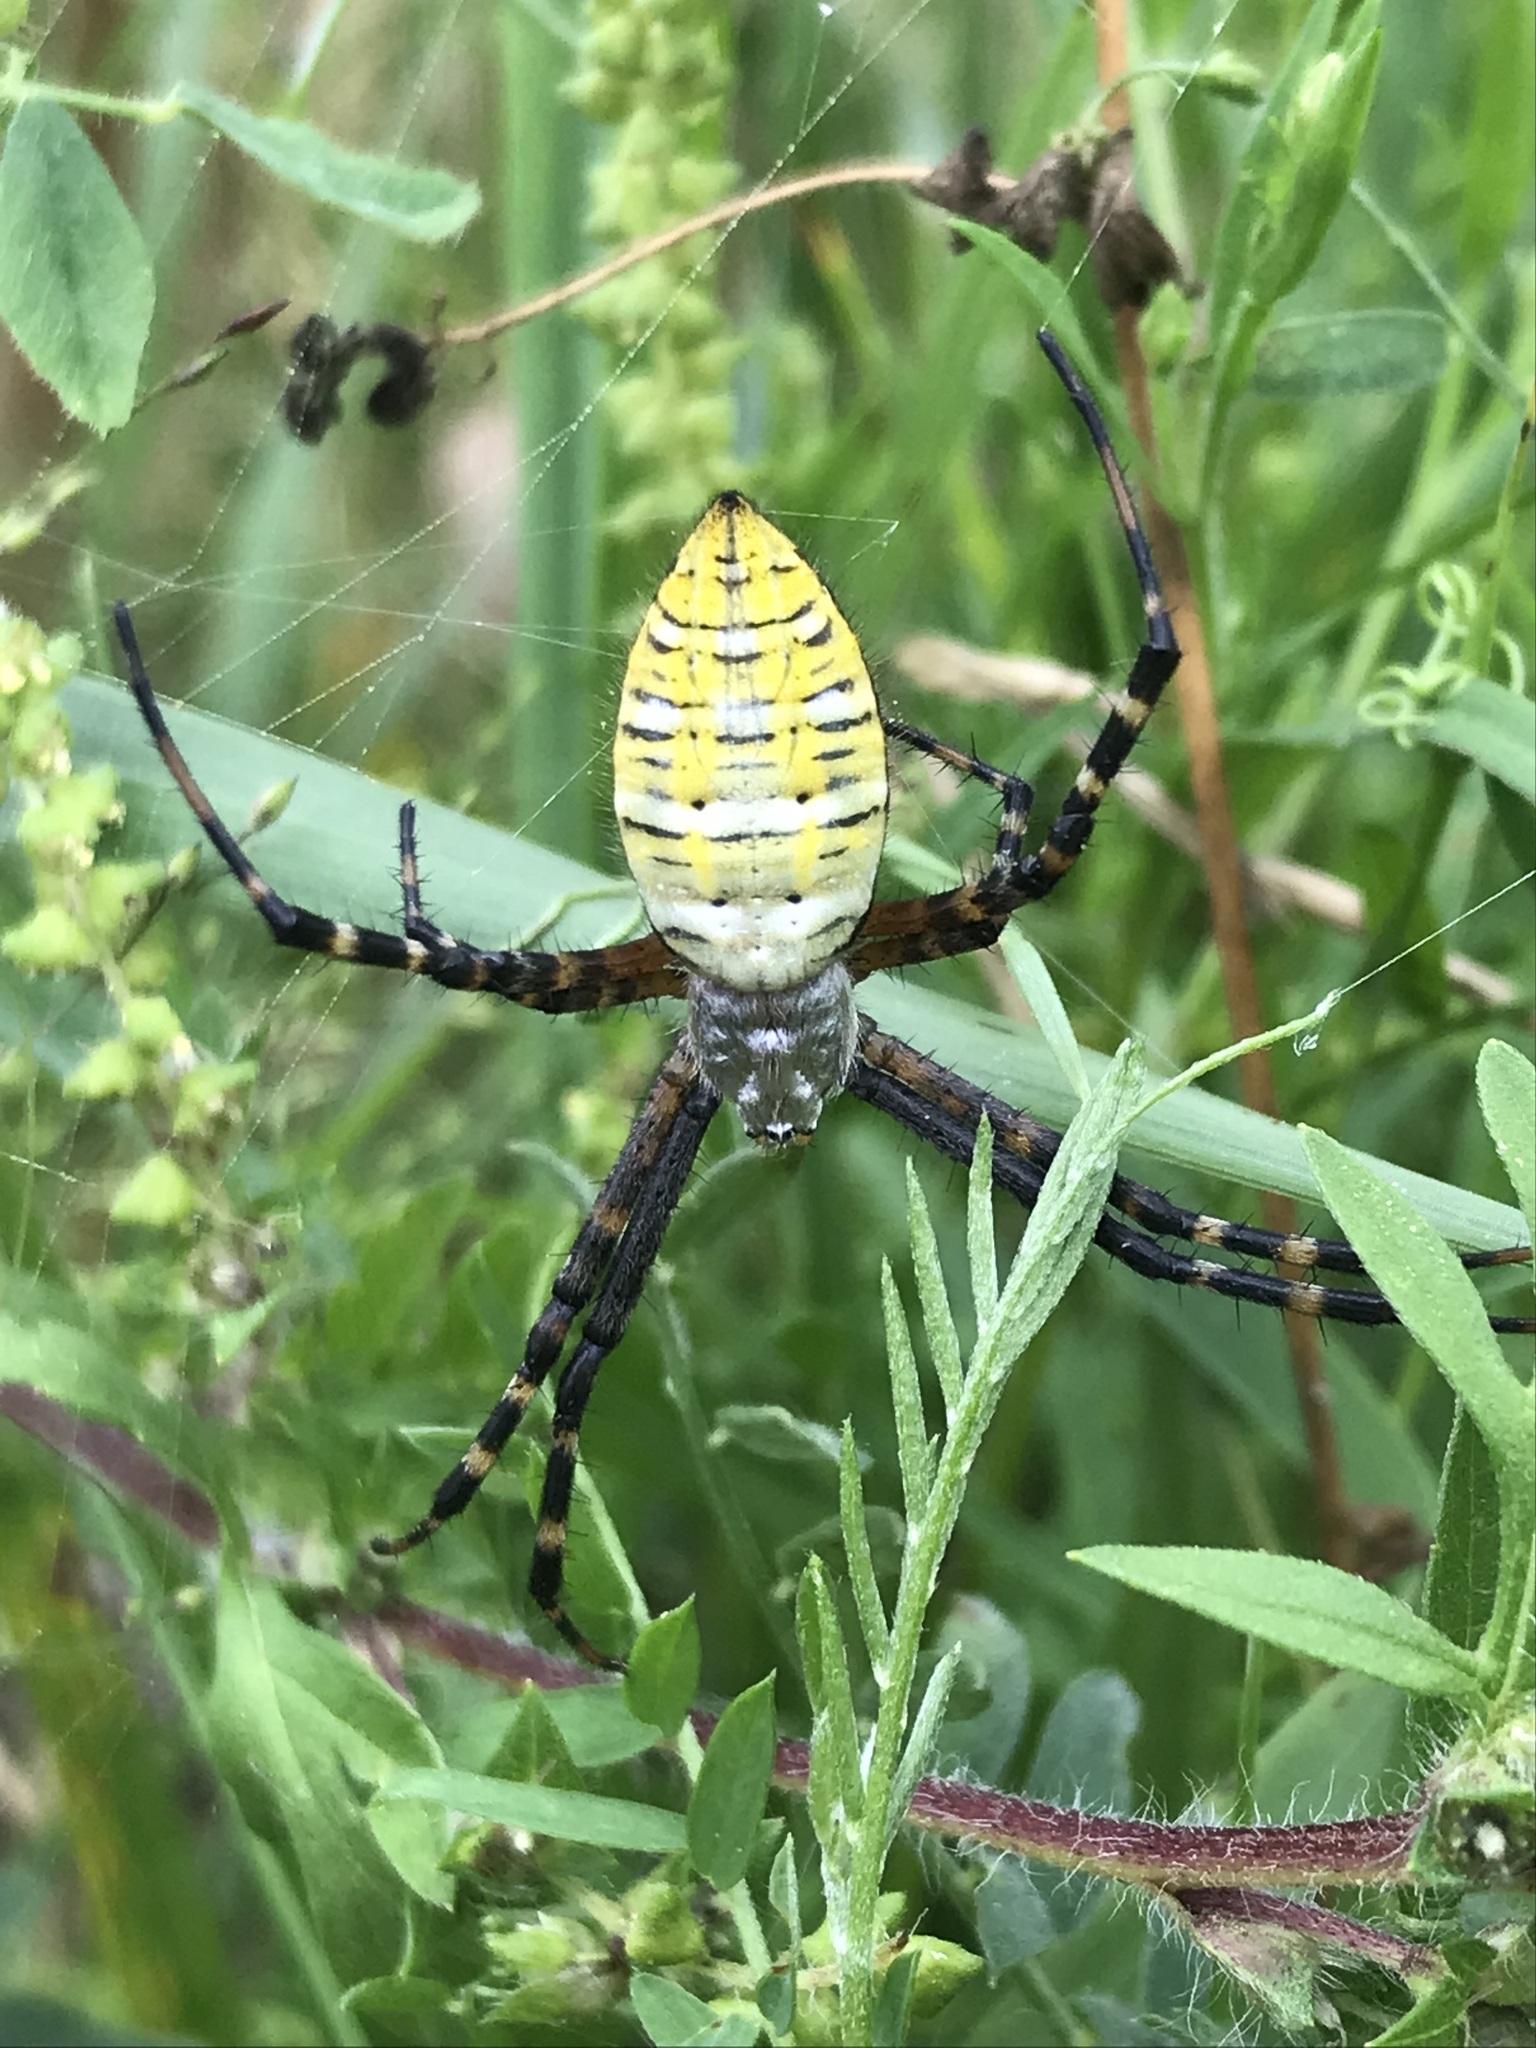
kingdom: Animalia
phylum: Arthropoda
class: Arachnida
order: Araneae
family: Araneidae
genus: Argiope
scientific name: Argiope trifasciata
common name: Banded garden spider
